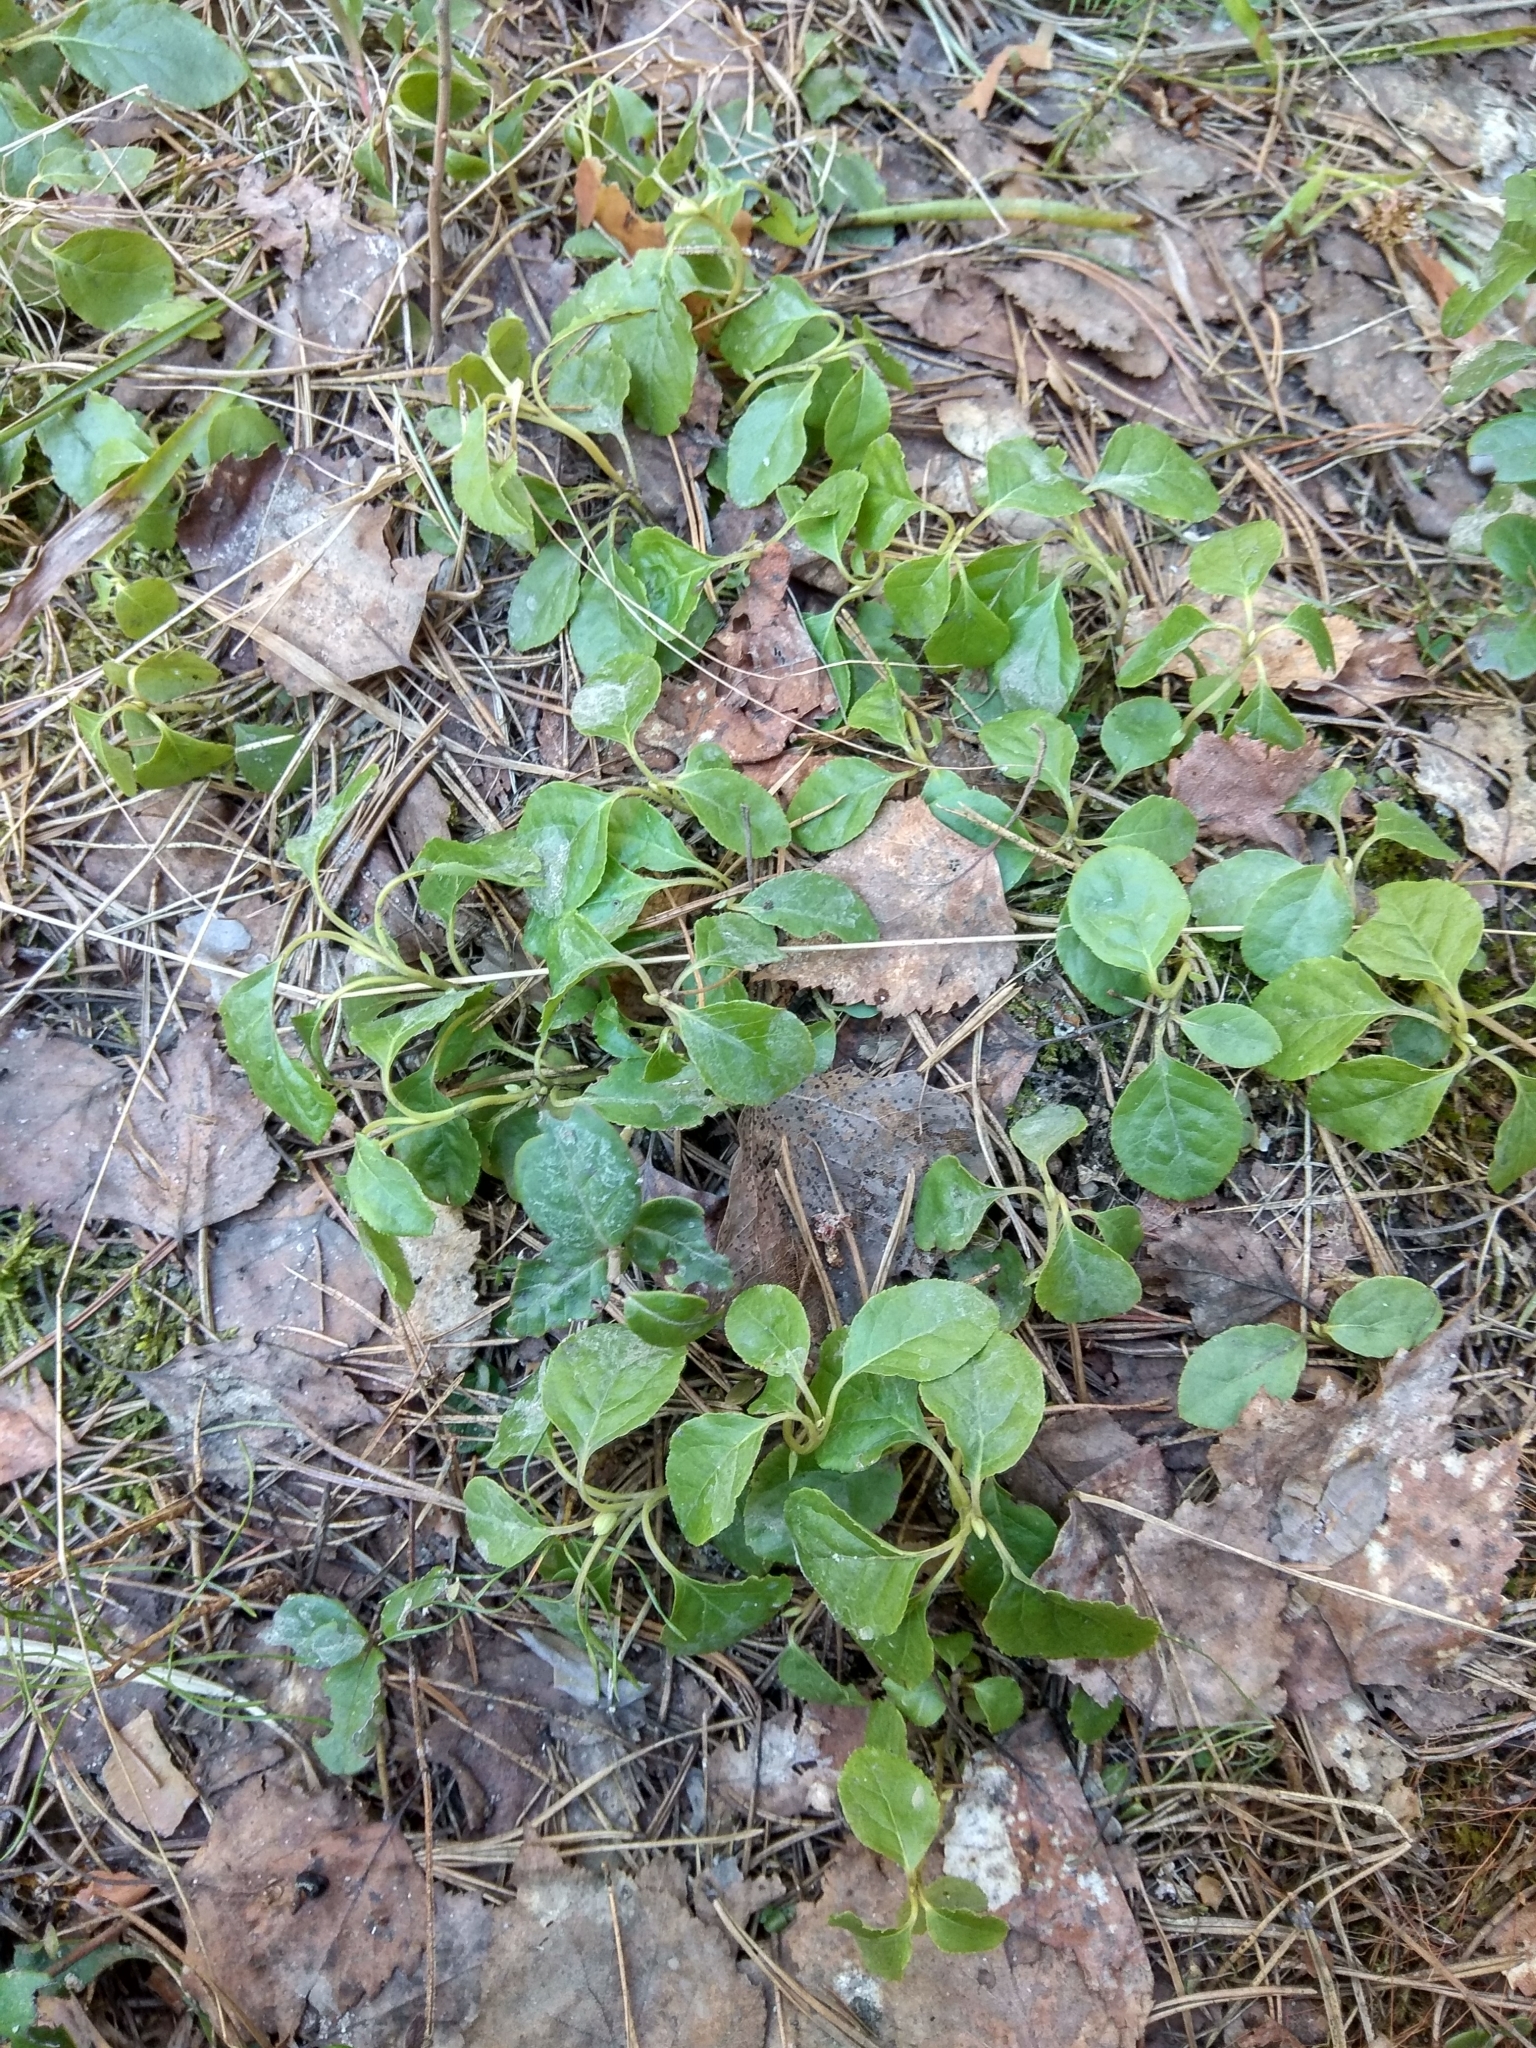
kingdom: Plantae
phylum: Tracheophyta
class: Magnoliopsida
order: Ericales
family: Ericaceae
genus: Orthilia
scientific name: Orthilia secunda
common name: One-sided orthilia
